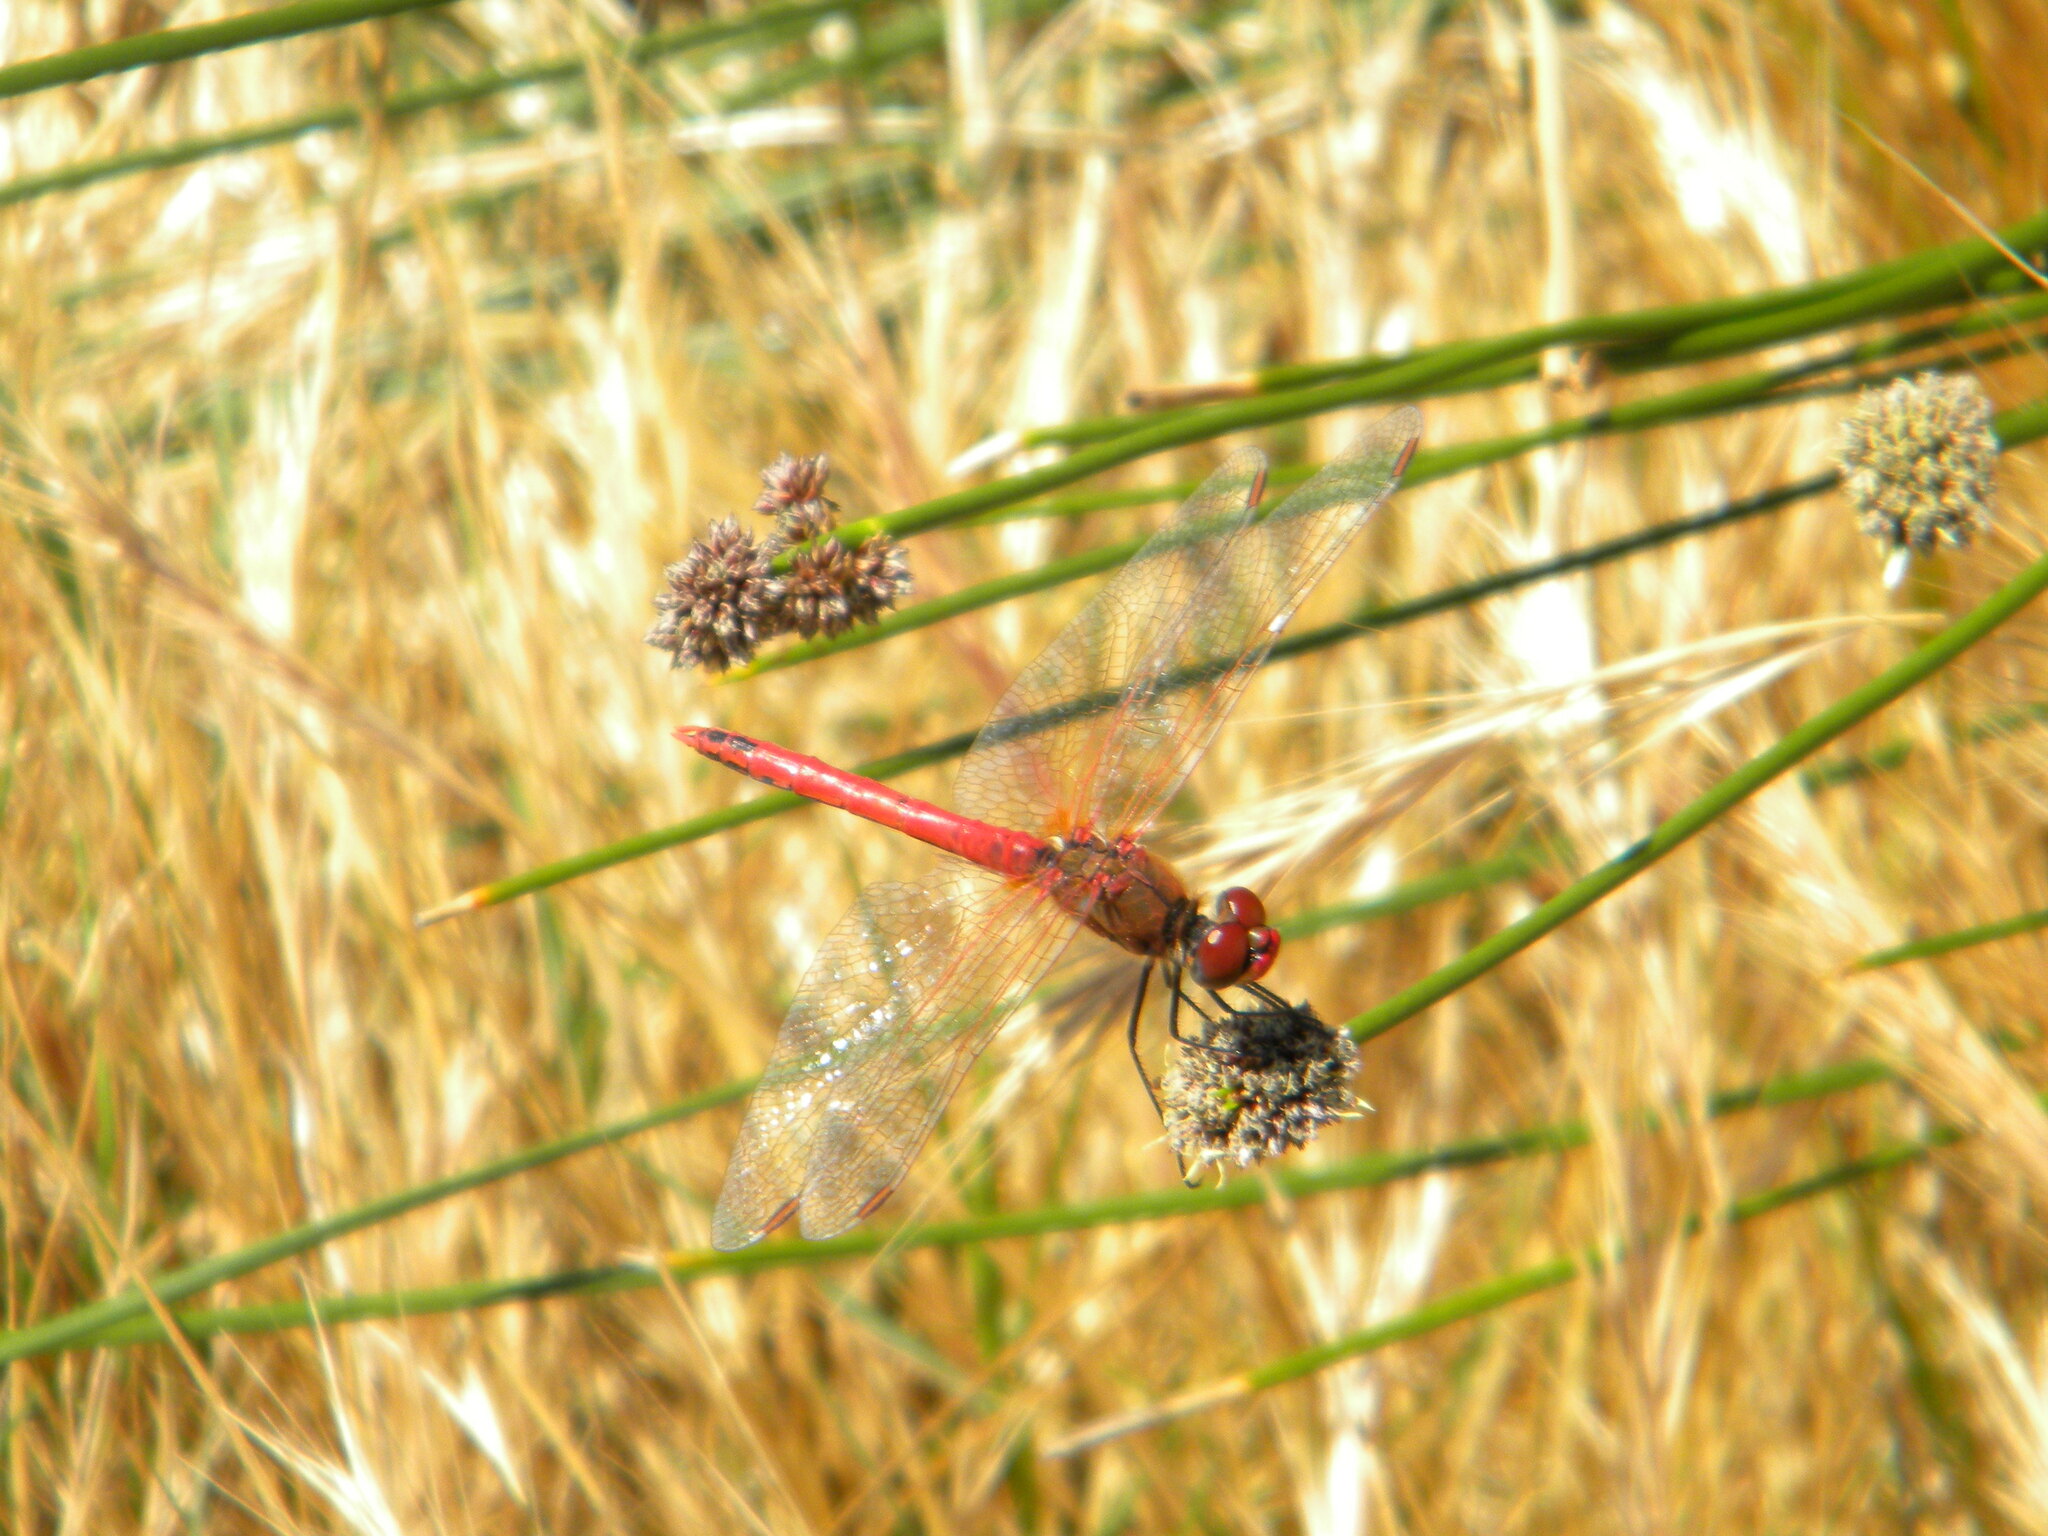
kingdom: Animalia
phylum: Arthropoda
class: Insecta
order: Odonata
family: Libellulidae
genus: Sympetrum
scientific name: Sympetrum fonscolombii
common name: Red-veined darter
